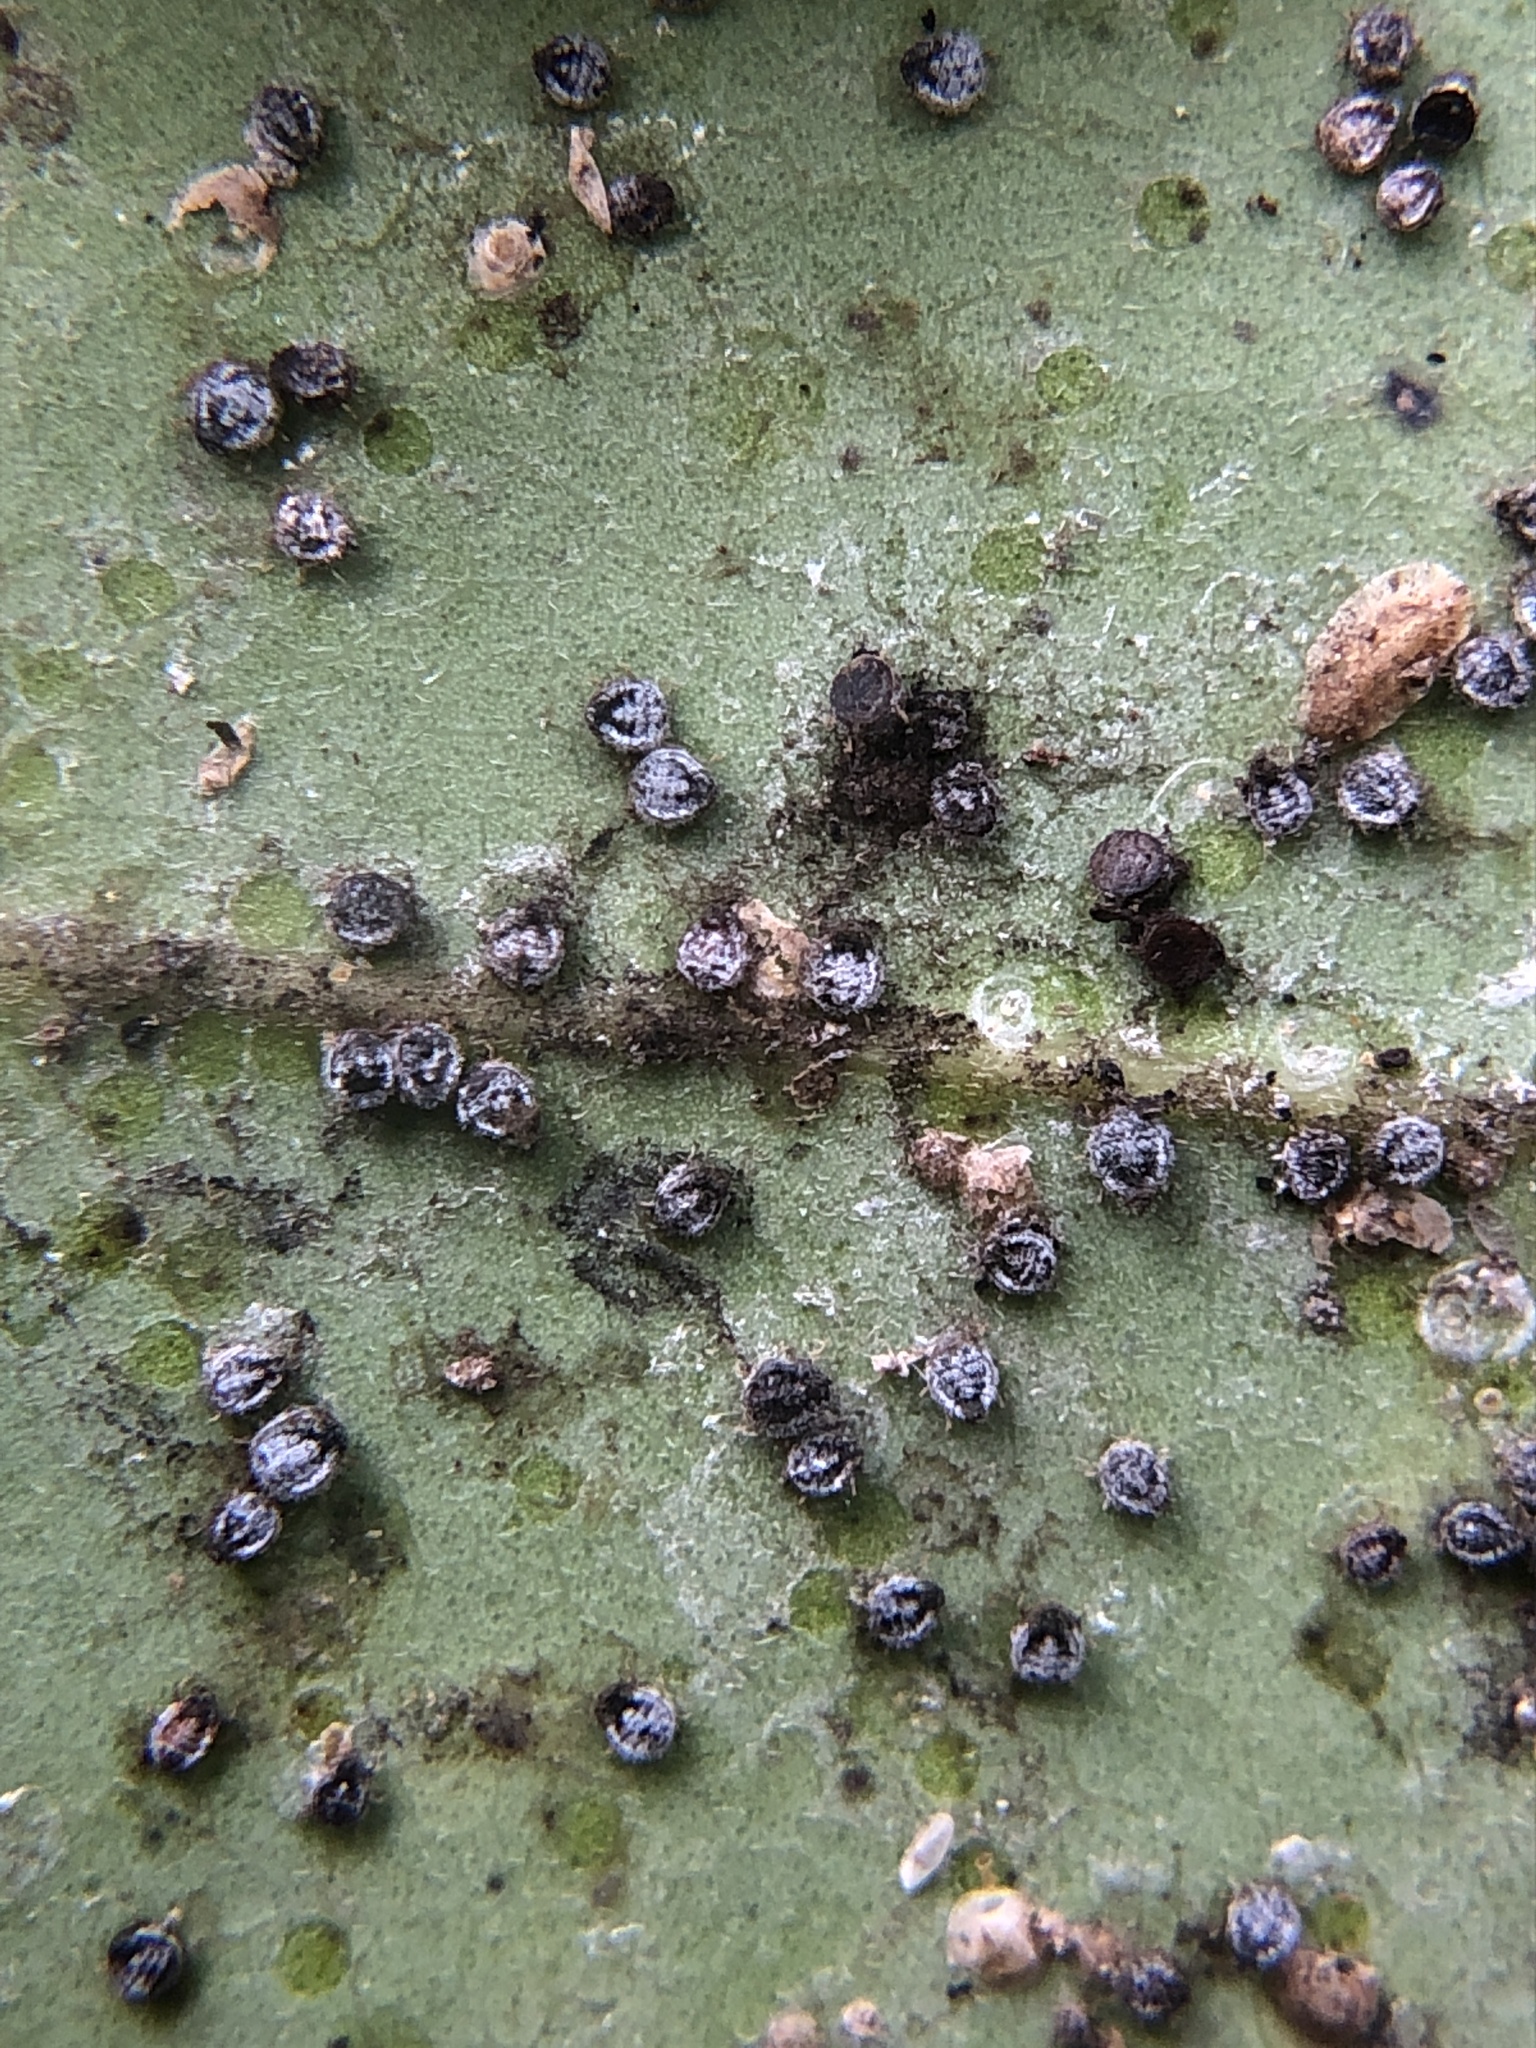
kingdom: Animalia
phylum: Arthropoda
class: Insecta
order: Hemiptera
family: Aphididae
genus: Euthoracaphis
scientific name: Euthoracaphis umbellulariae
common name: Aphid
